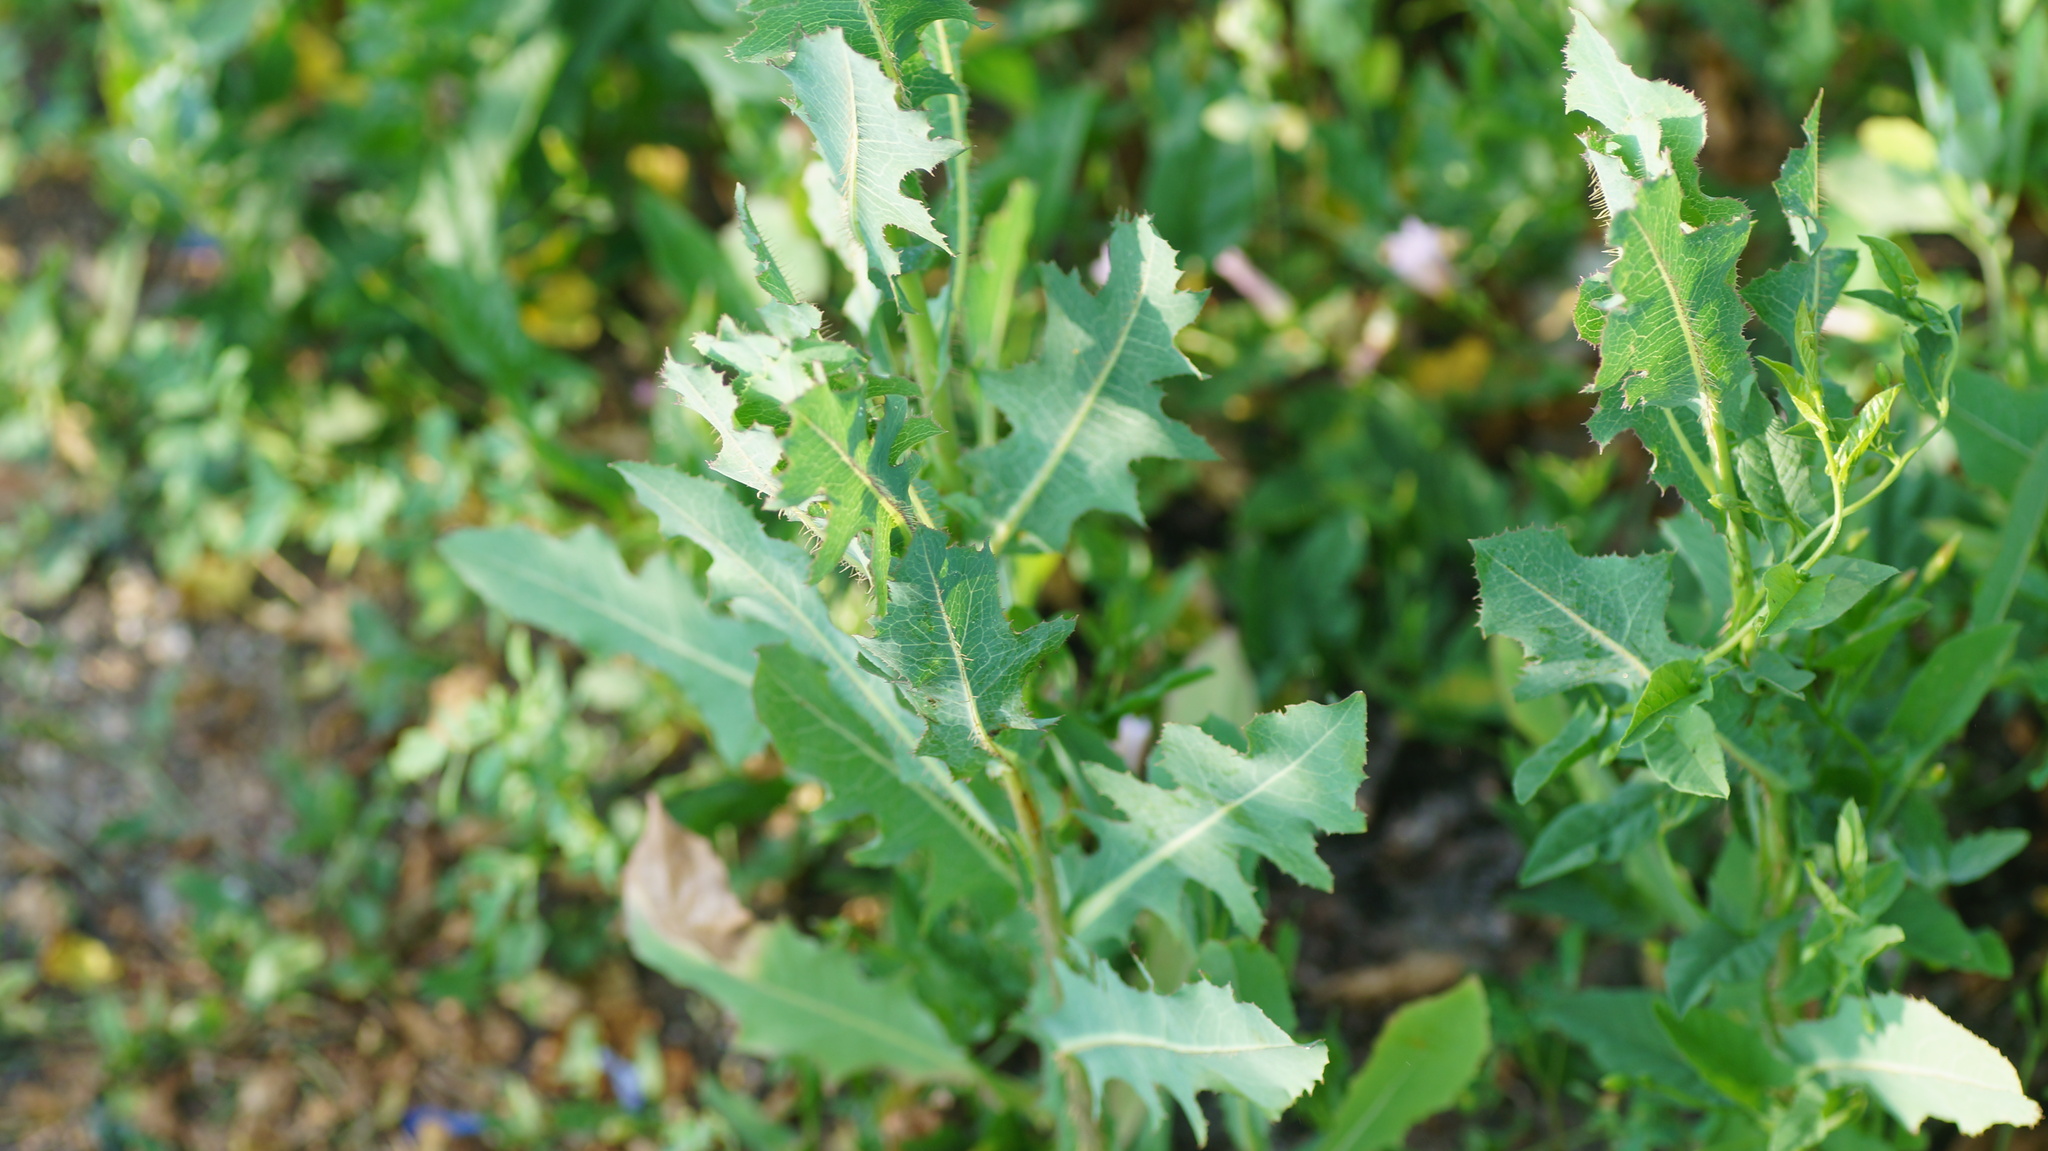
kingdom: Plantae
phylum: Tracheophyta
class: Magnoliopsida
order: Asterales
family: Asteraceae
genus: Lactuca
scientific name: Lactuca serriola
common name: Prickly lettuce
